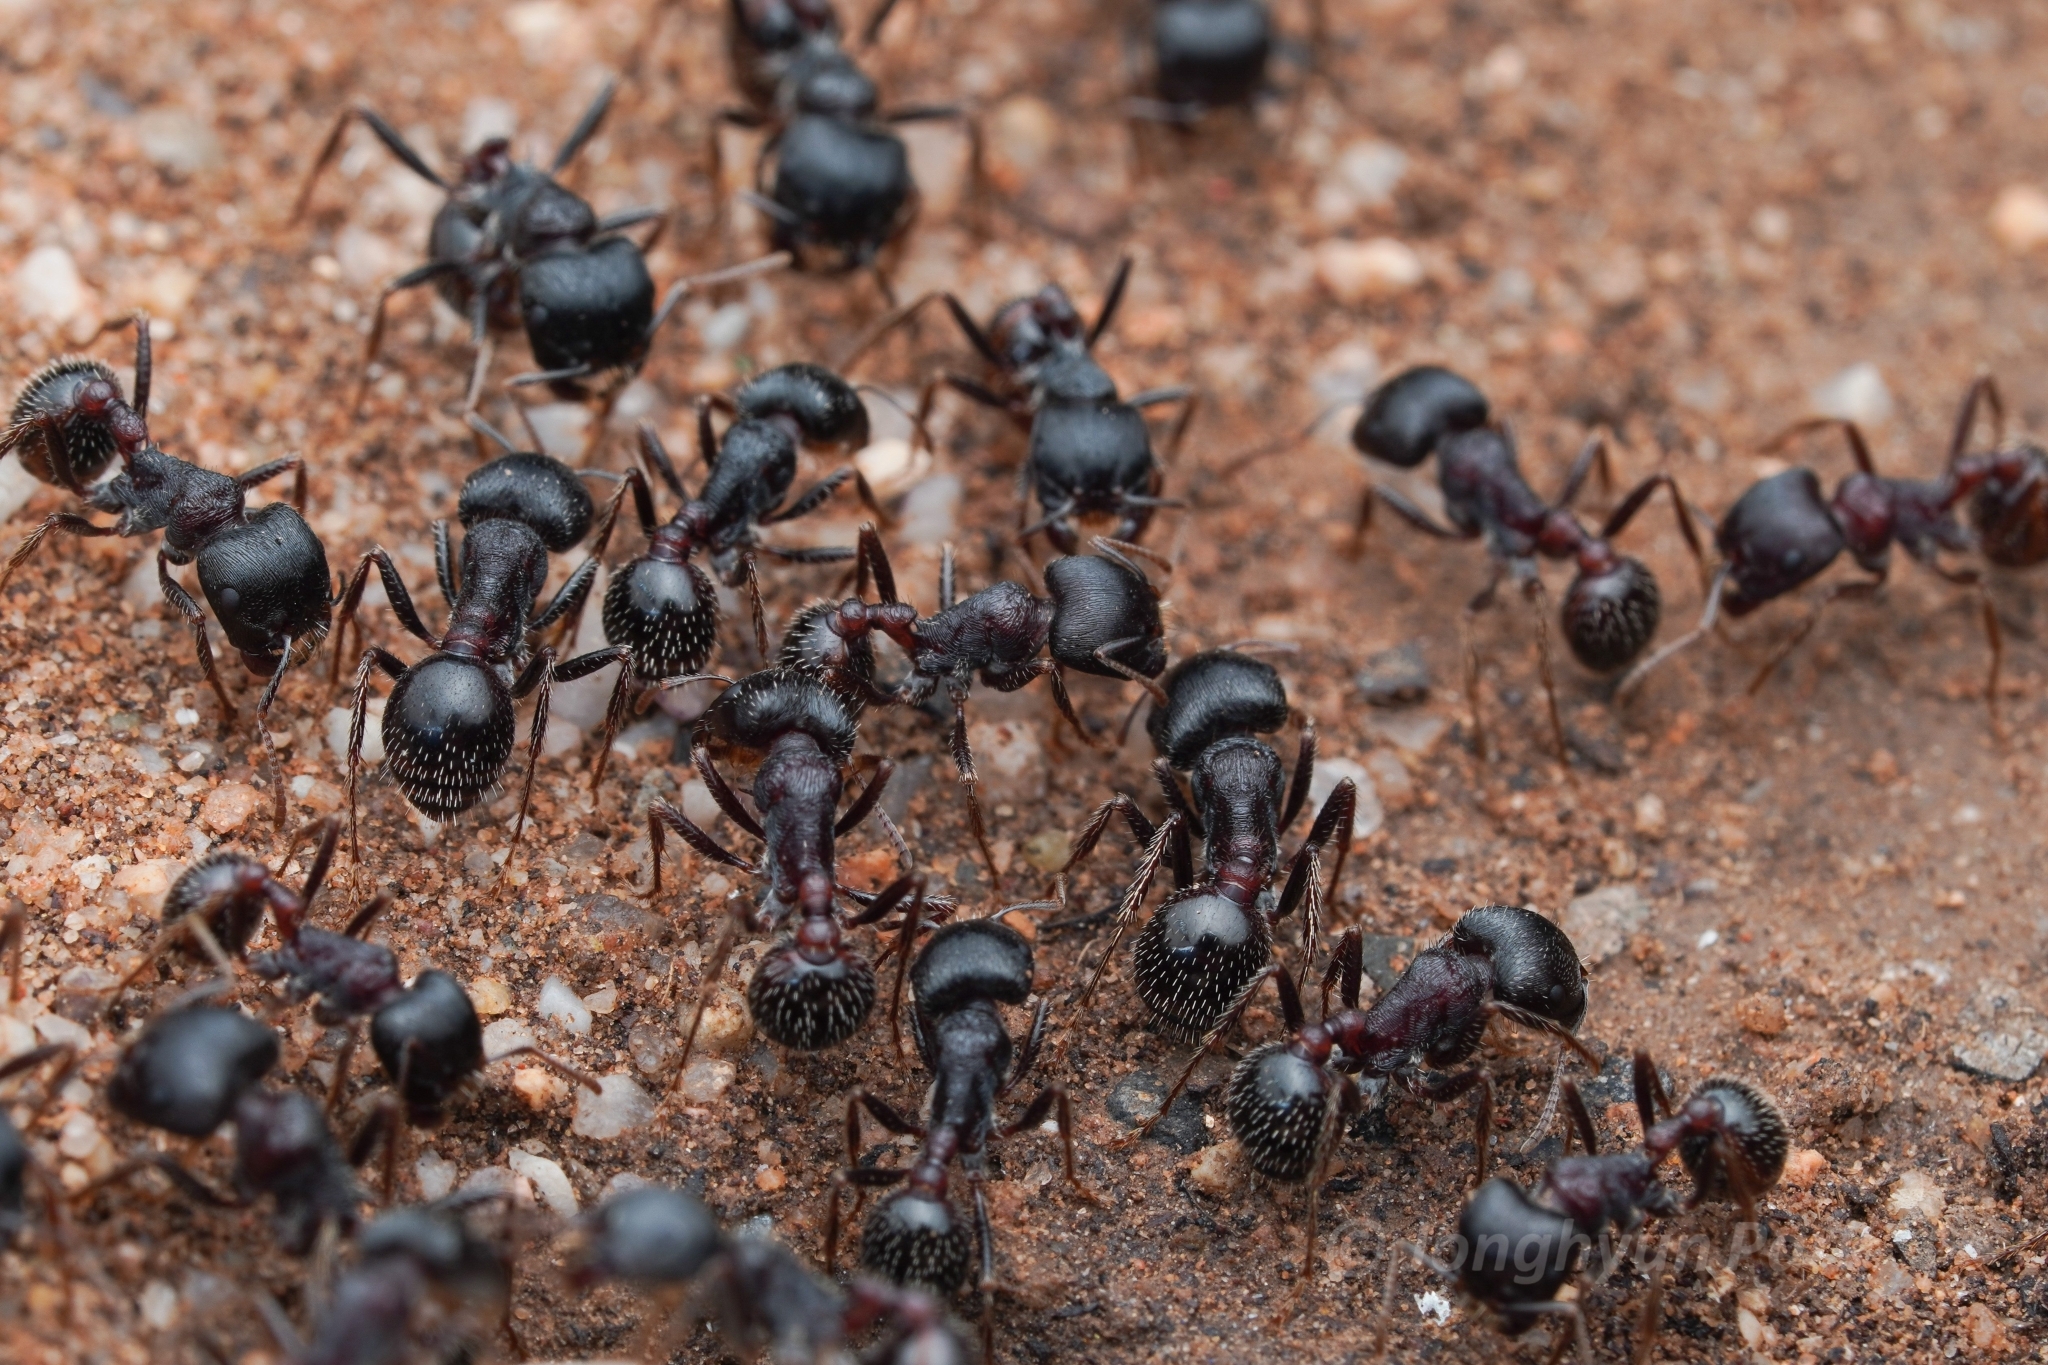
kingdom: Animalia
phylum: Arthropoda
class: Insecta
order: Hymenoptera
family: Formicidae
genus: Pogonomyrmex
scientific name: Pogonomyrmex rugosus
